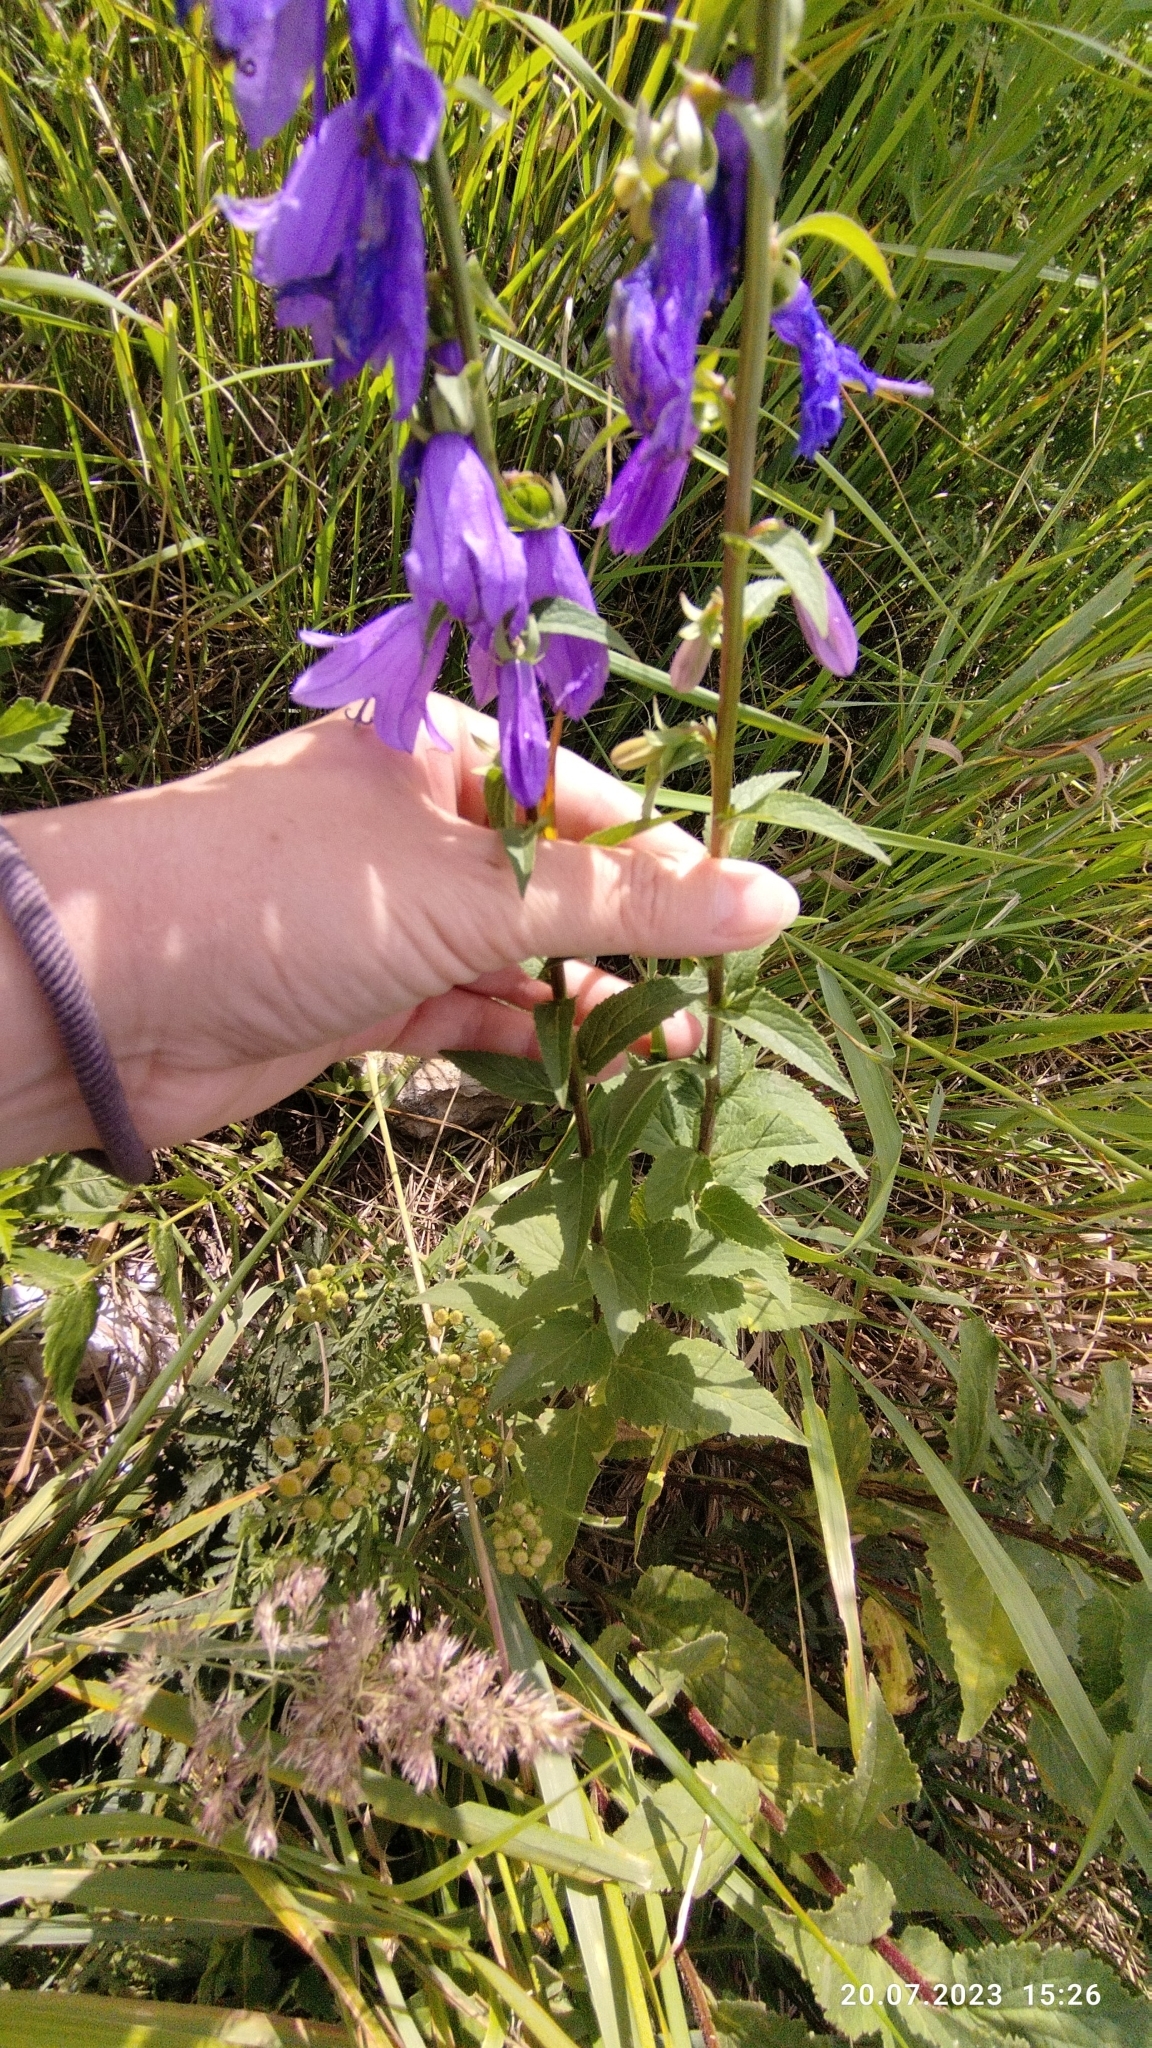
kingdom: Plantae
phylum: Tracheophyta
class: Magnoliopsida
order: Asterales
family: Campanulaceae
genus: Campanula
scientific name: Campanula rapunculoides
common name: Creeping bellflower
